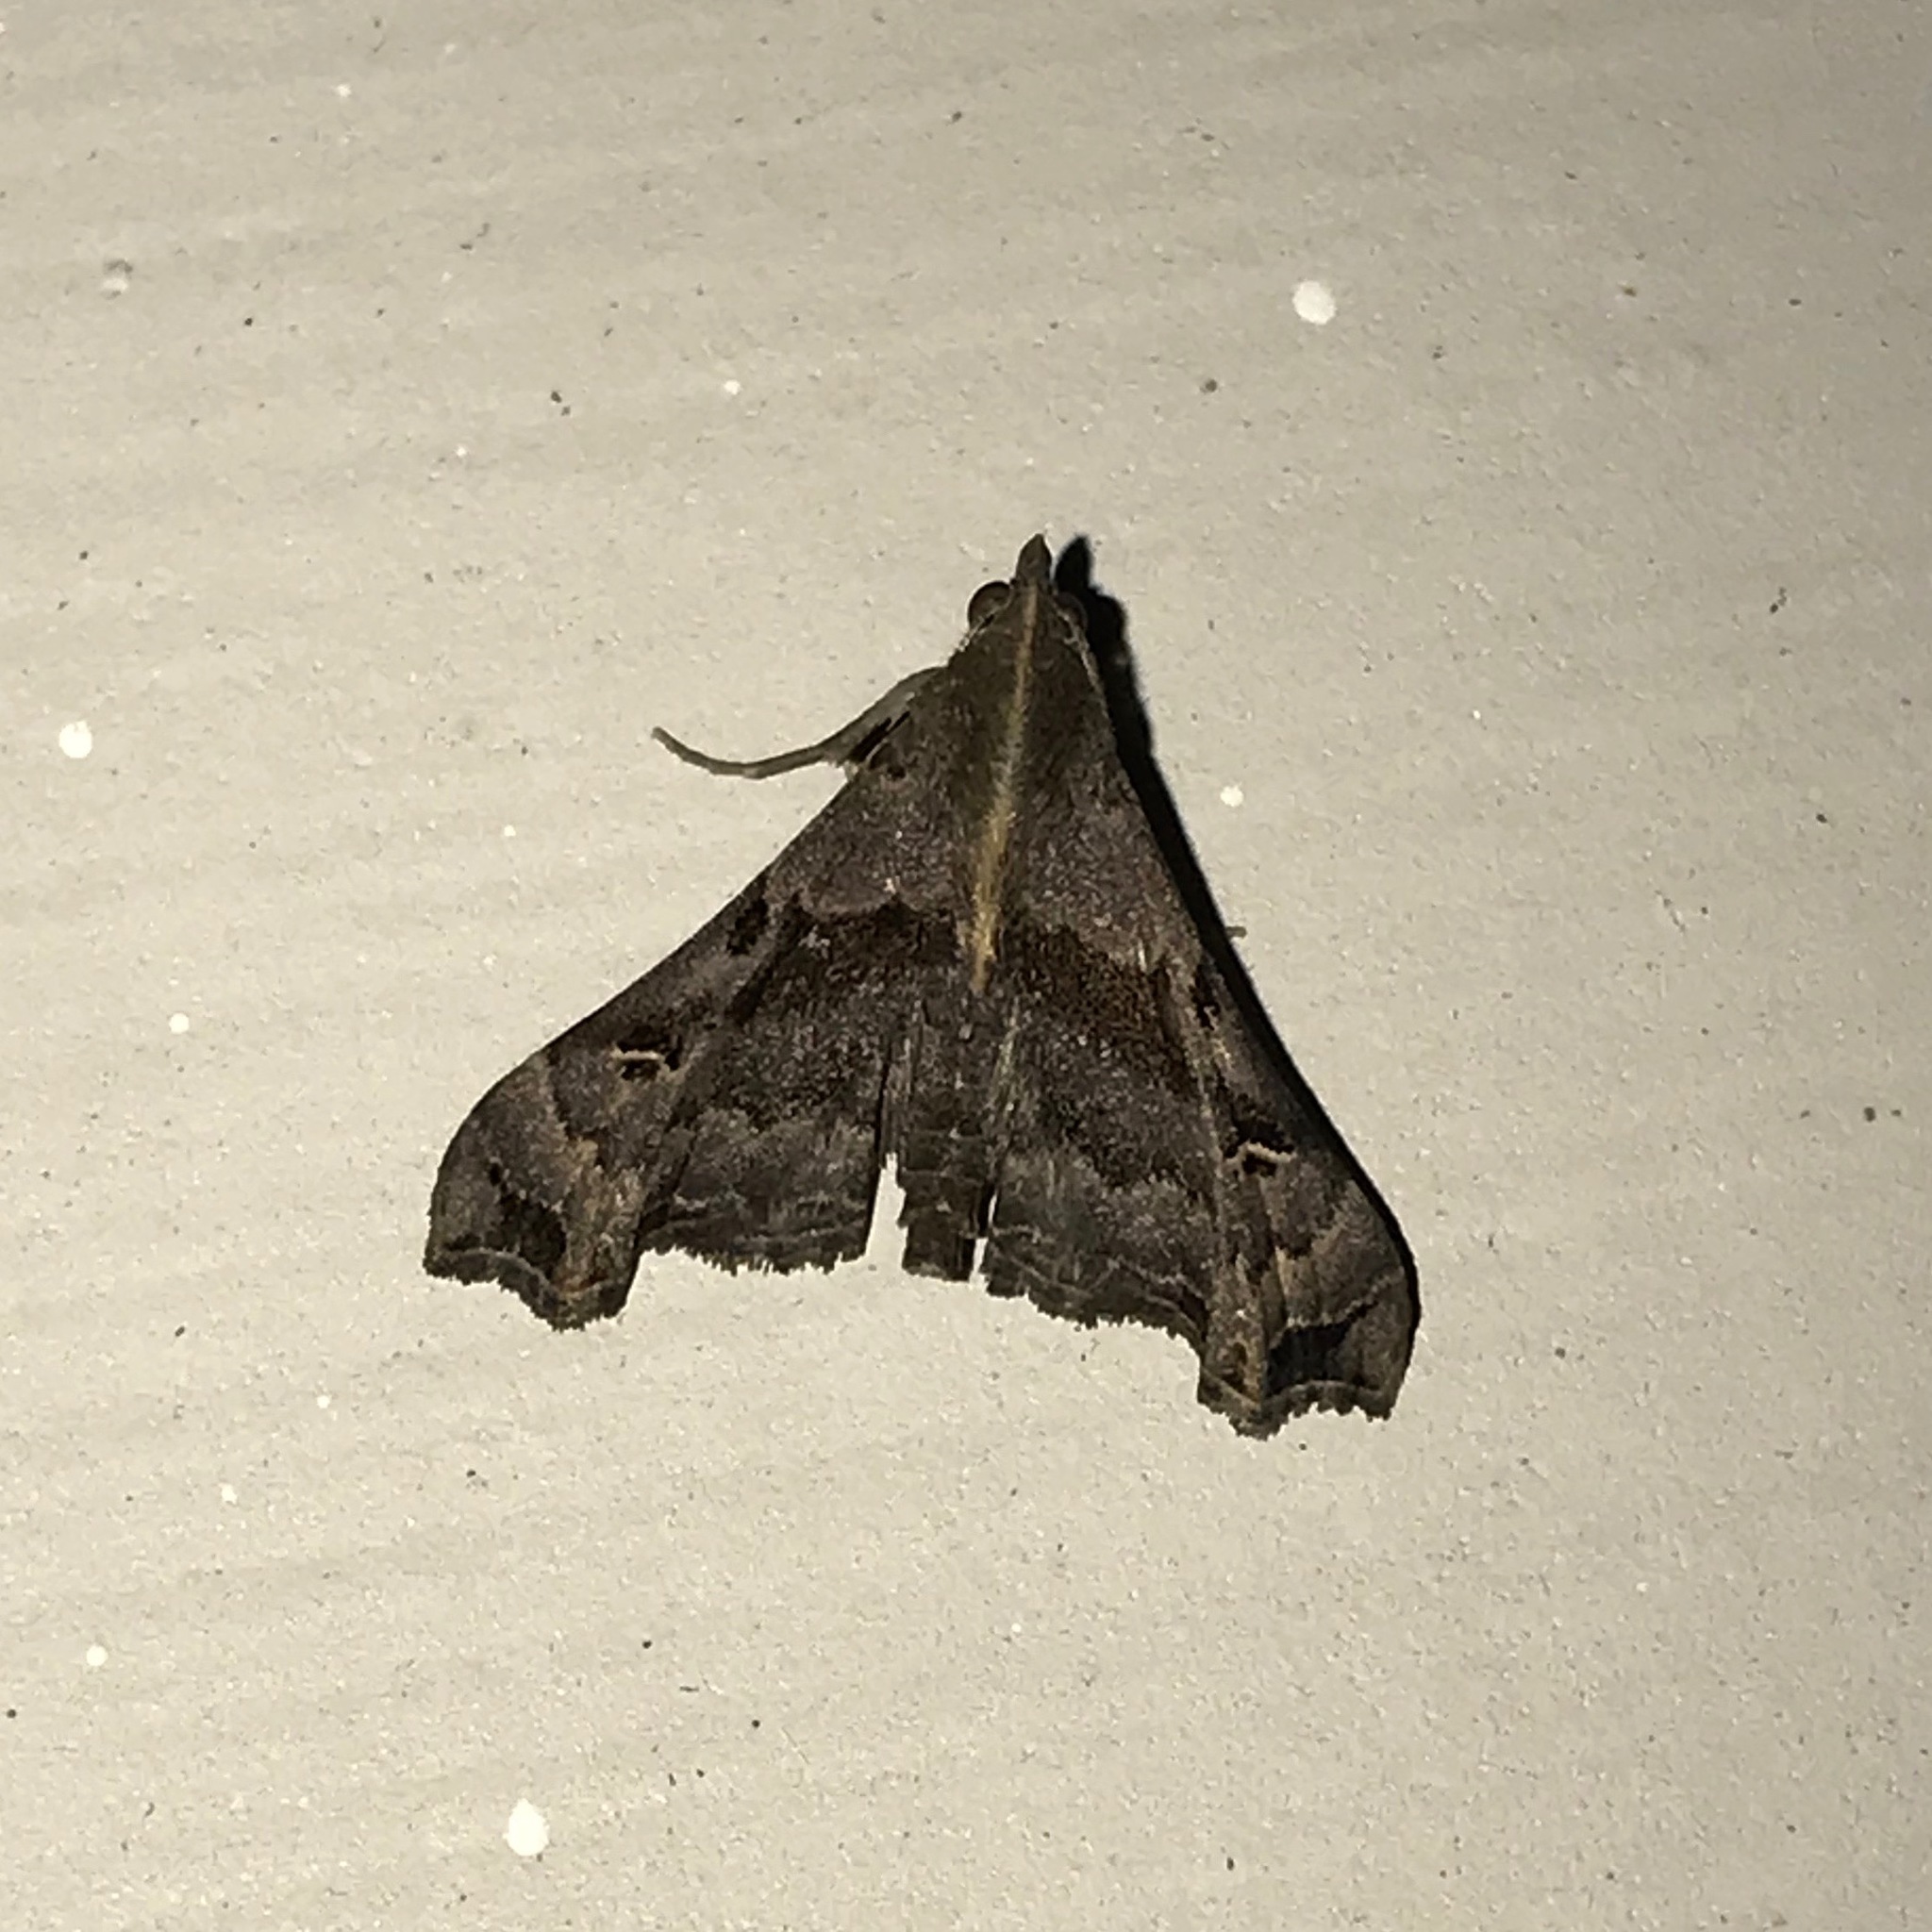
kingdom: Animalia
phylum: Arthropoda
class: Insecta
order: Lepidoptera
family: Erebidae
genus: Palthis
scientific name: Palthis asopialis
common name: Faint-spotted palthis moth
